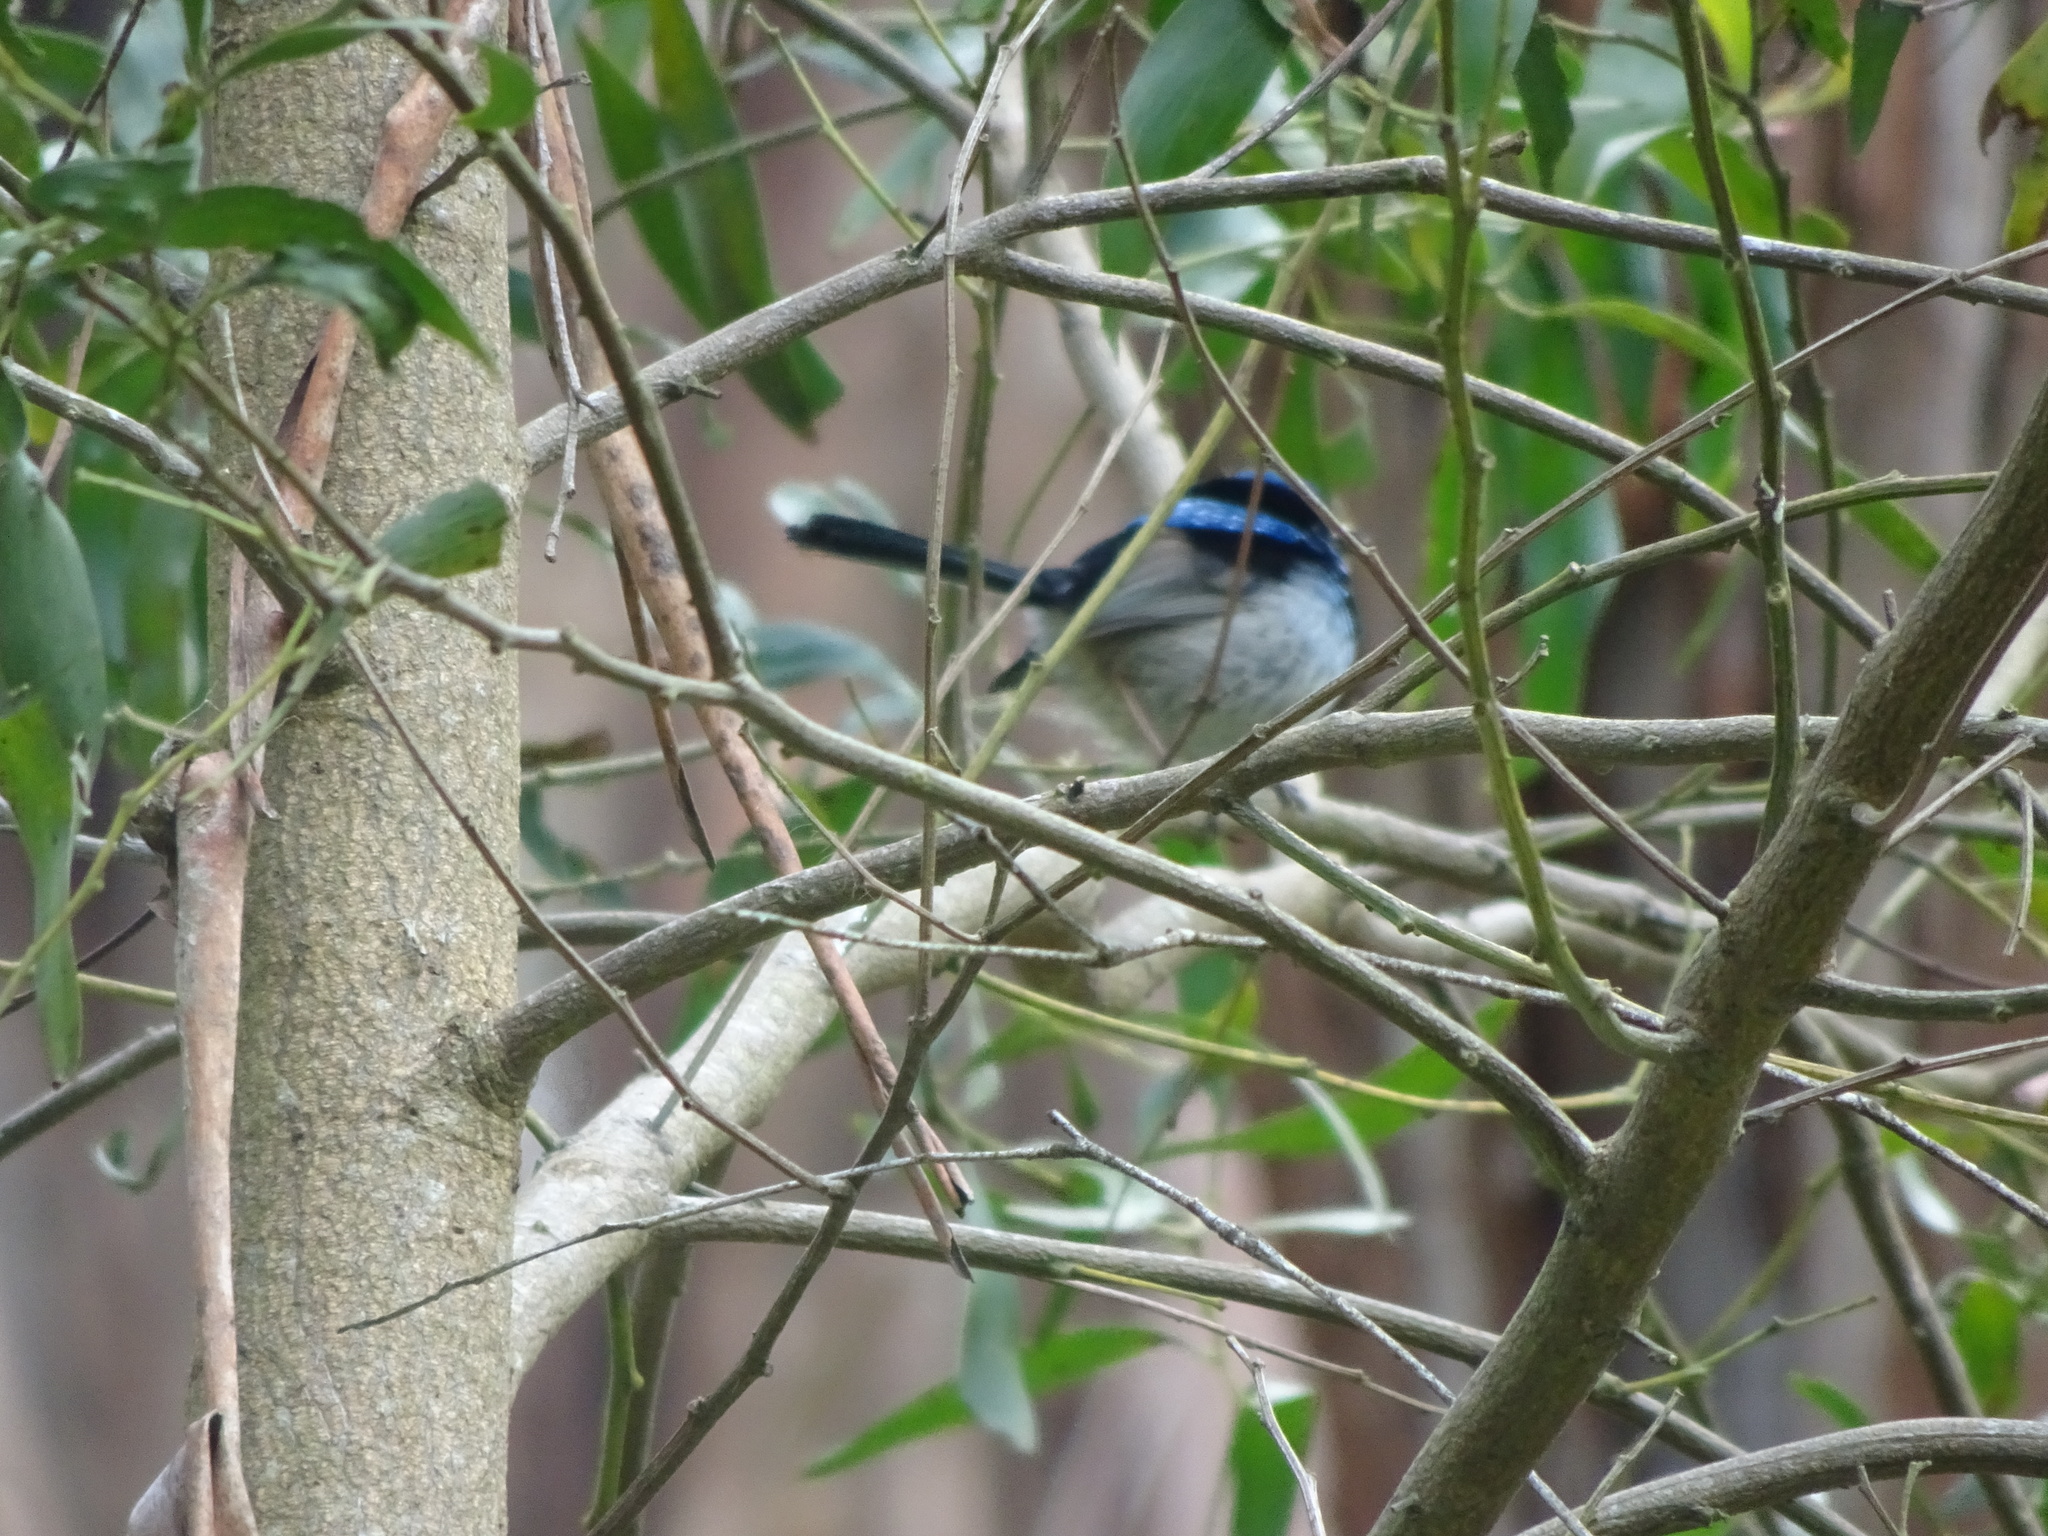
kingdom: Animalia
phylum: Chordata
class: Aves
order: Passeriformes
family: Maluridae
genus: Malurus
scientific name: Malurus cyaneus
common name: Superb fairywren
